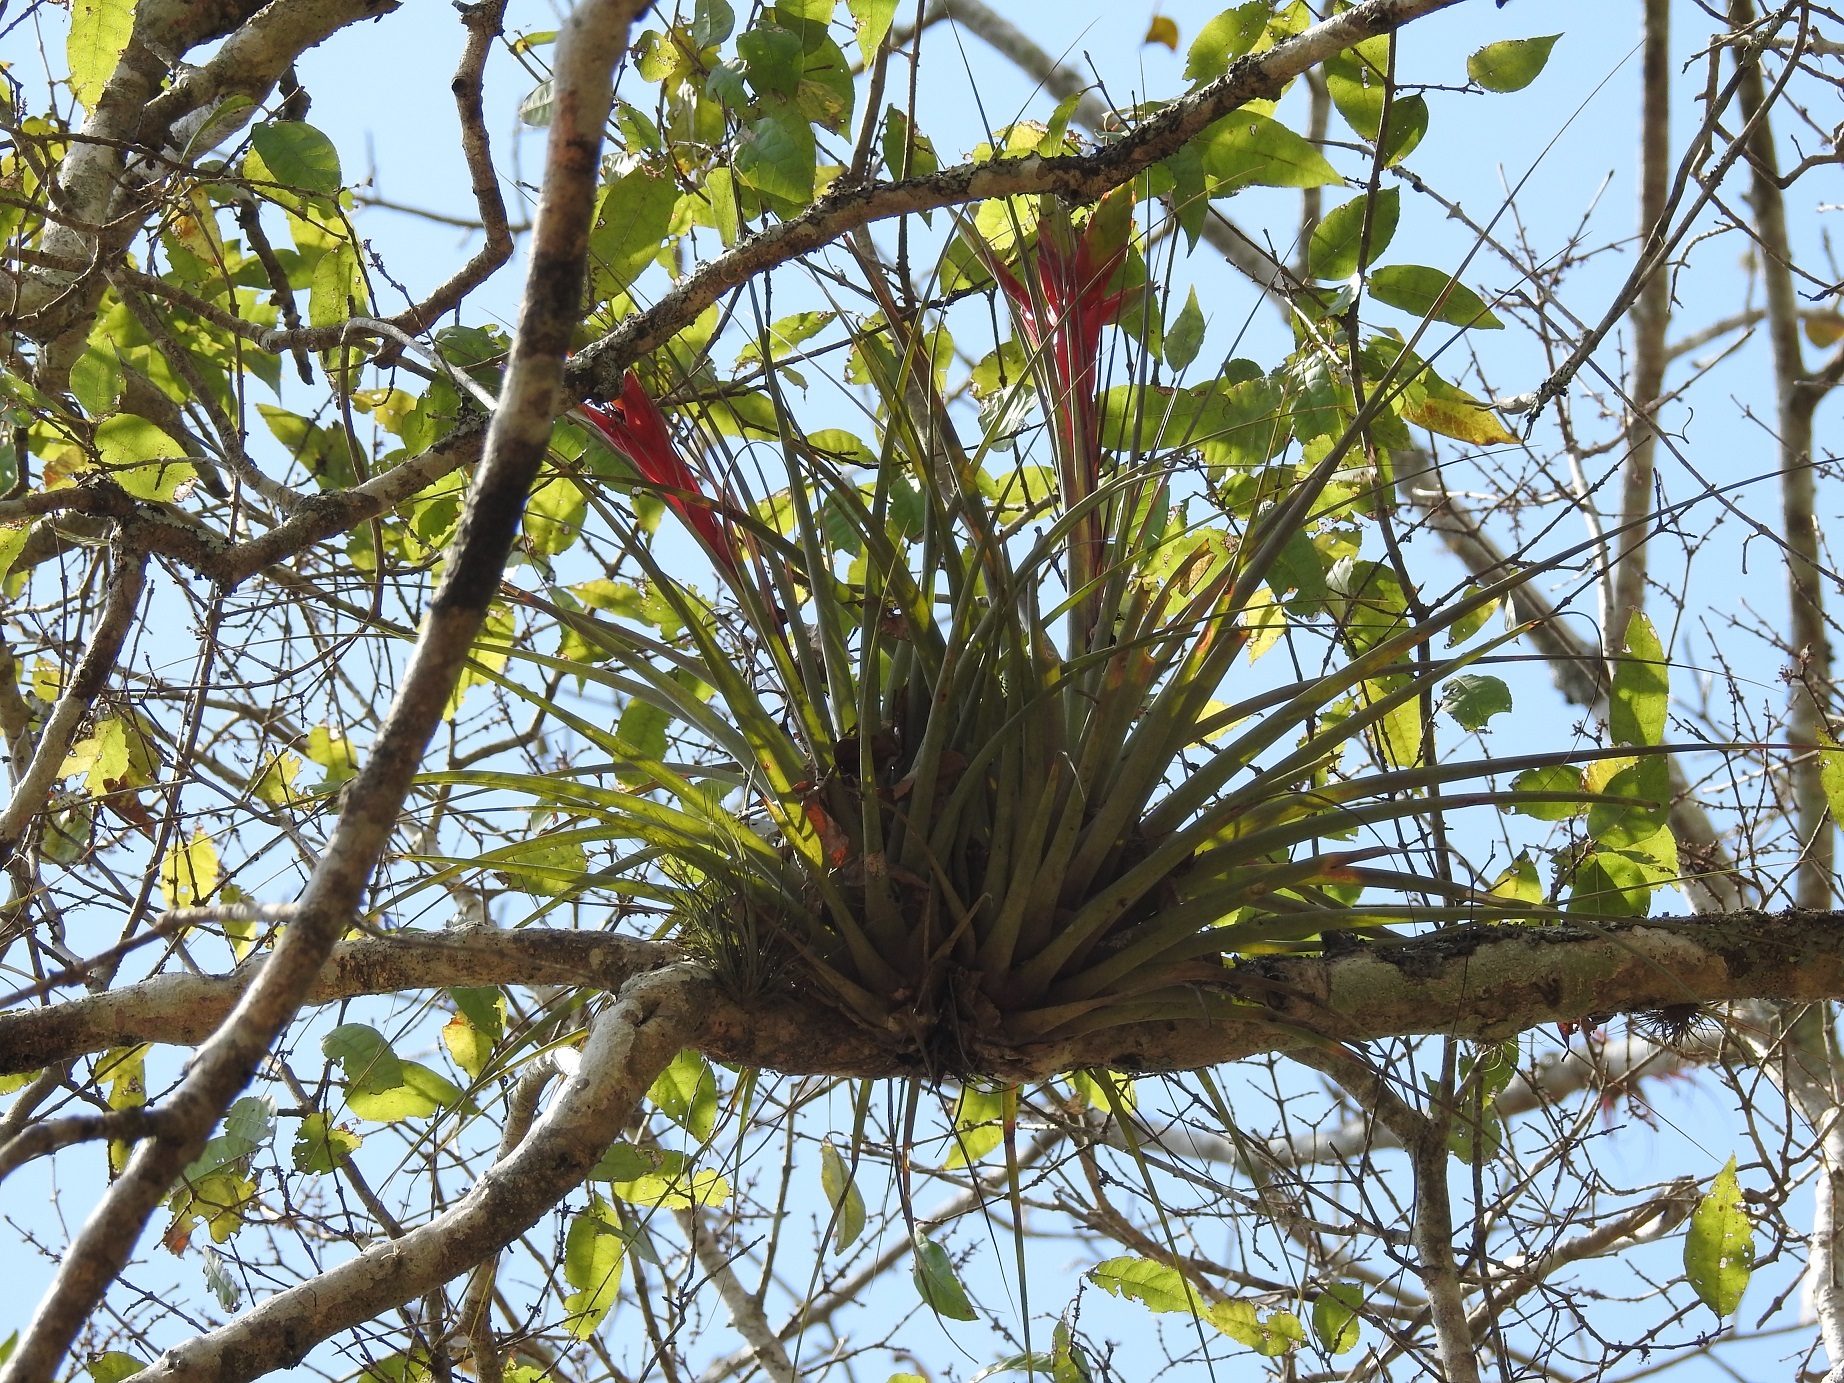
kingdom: Plantae
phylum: Tracheophyta
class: Liliopsida
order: Poales
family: Bromeliaceae
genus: Tillandsia
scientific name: Tillandsia zoquensis
